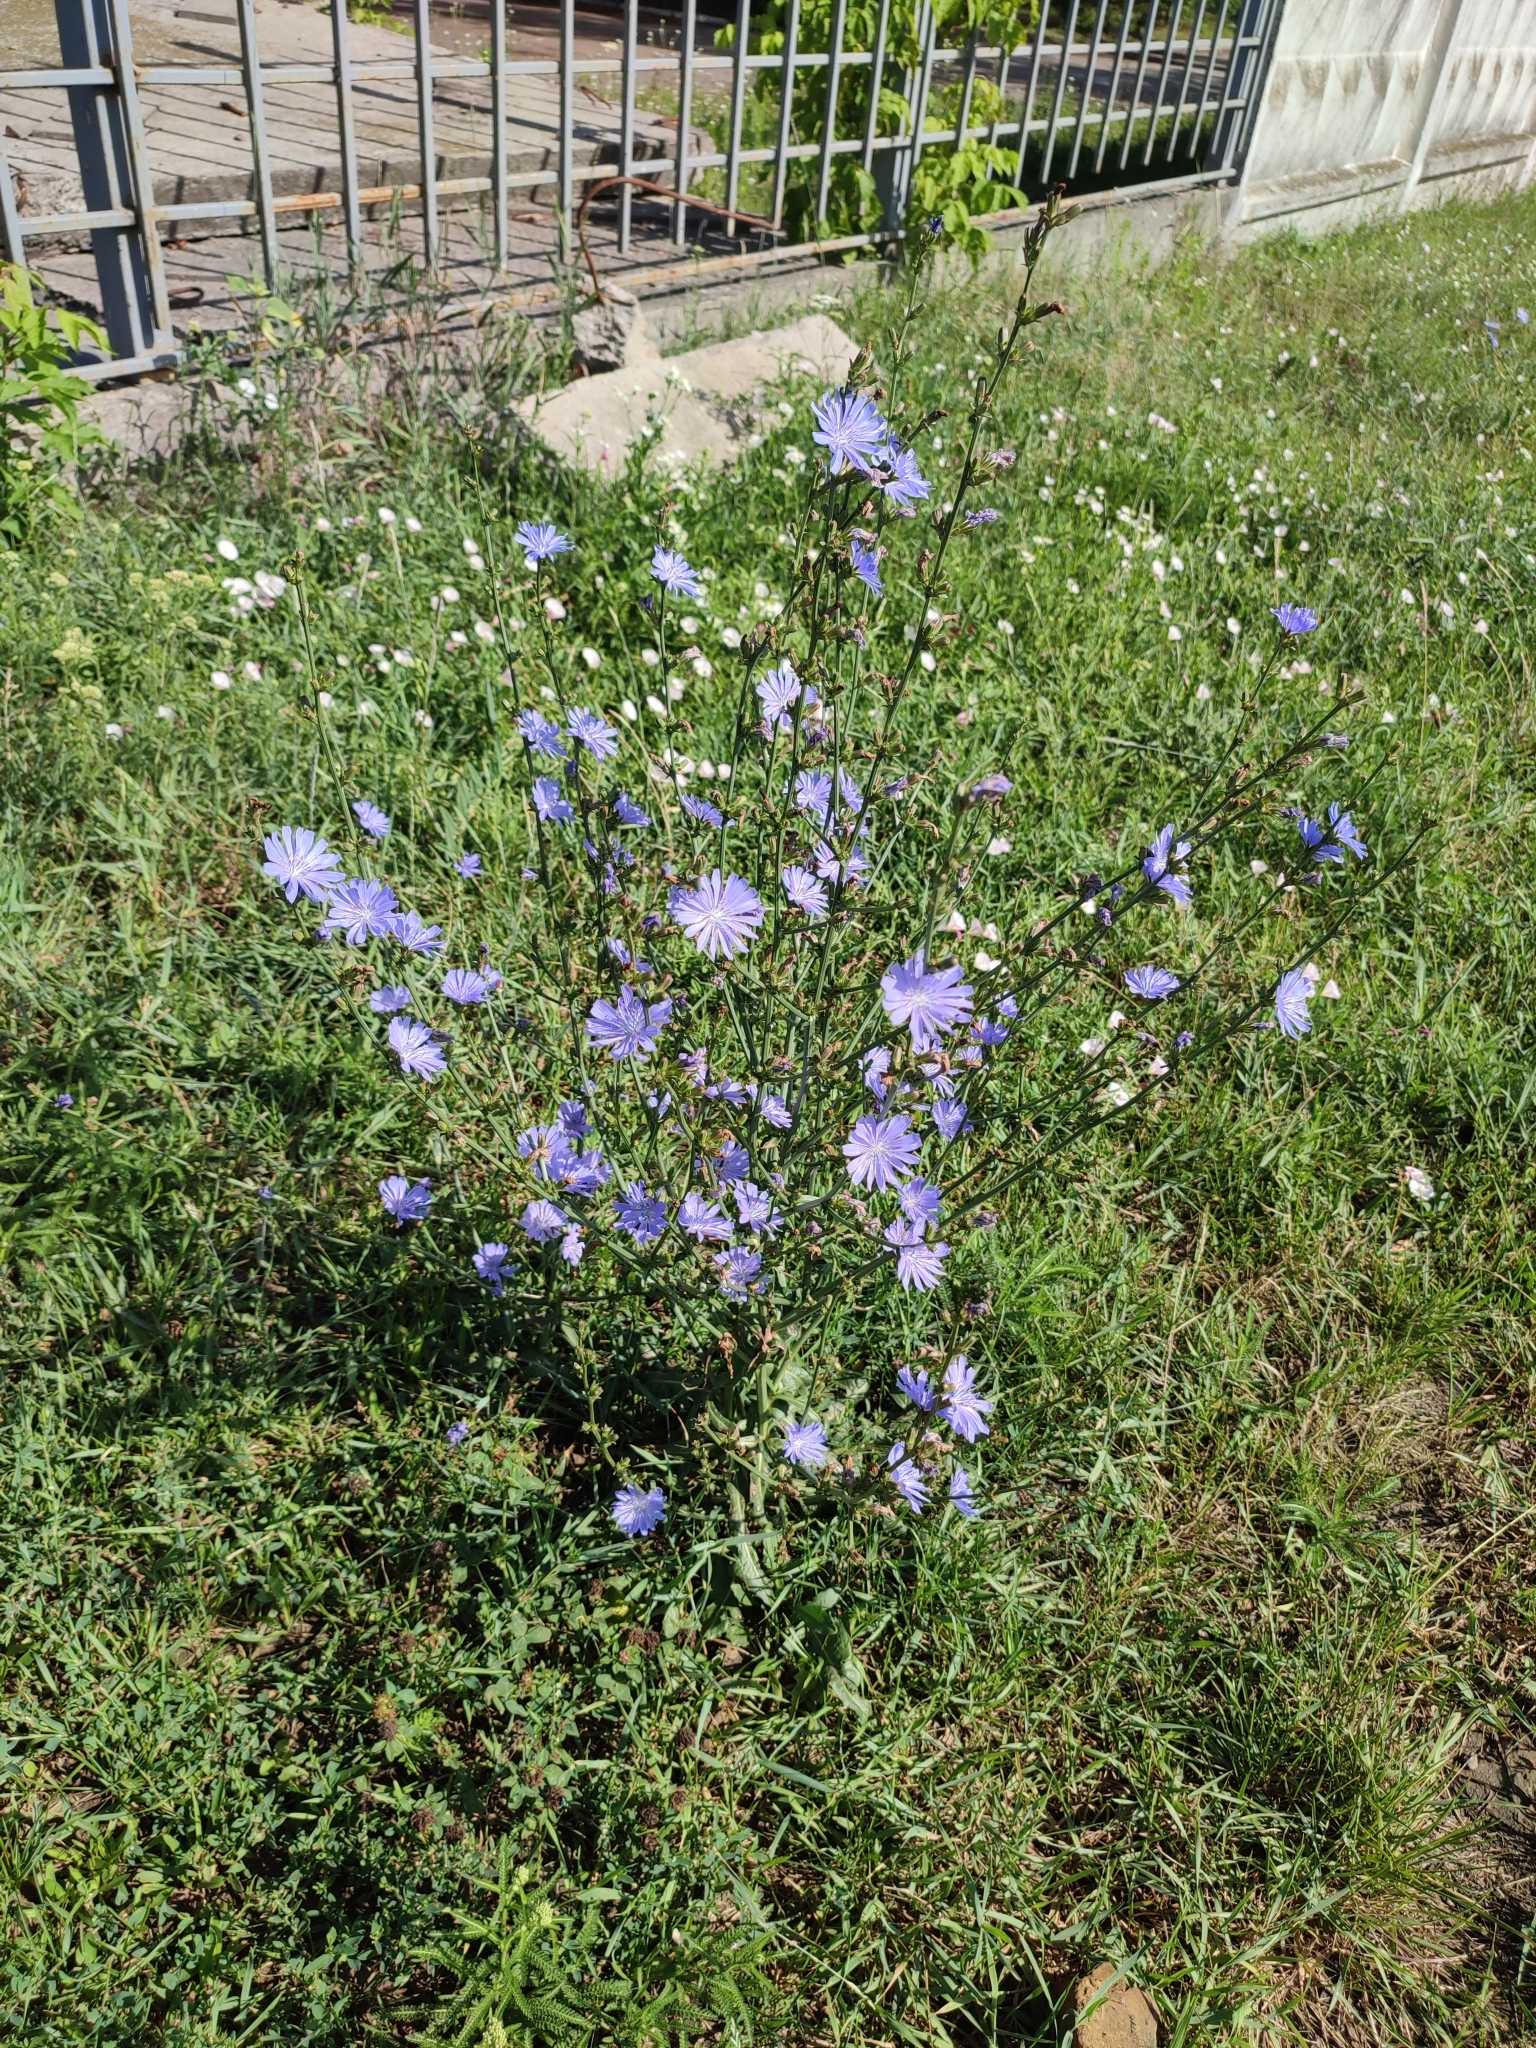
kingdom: Plantae
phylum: Tracheophyta
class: Magnoliopsida
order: Asterales
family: Asteraceae
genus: Cichorium
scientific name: Cichorium intybus
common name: Chicory
